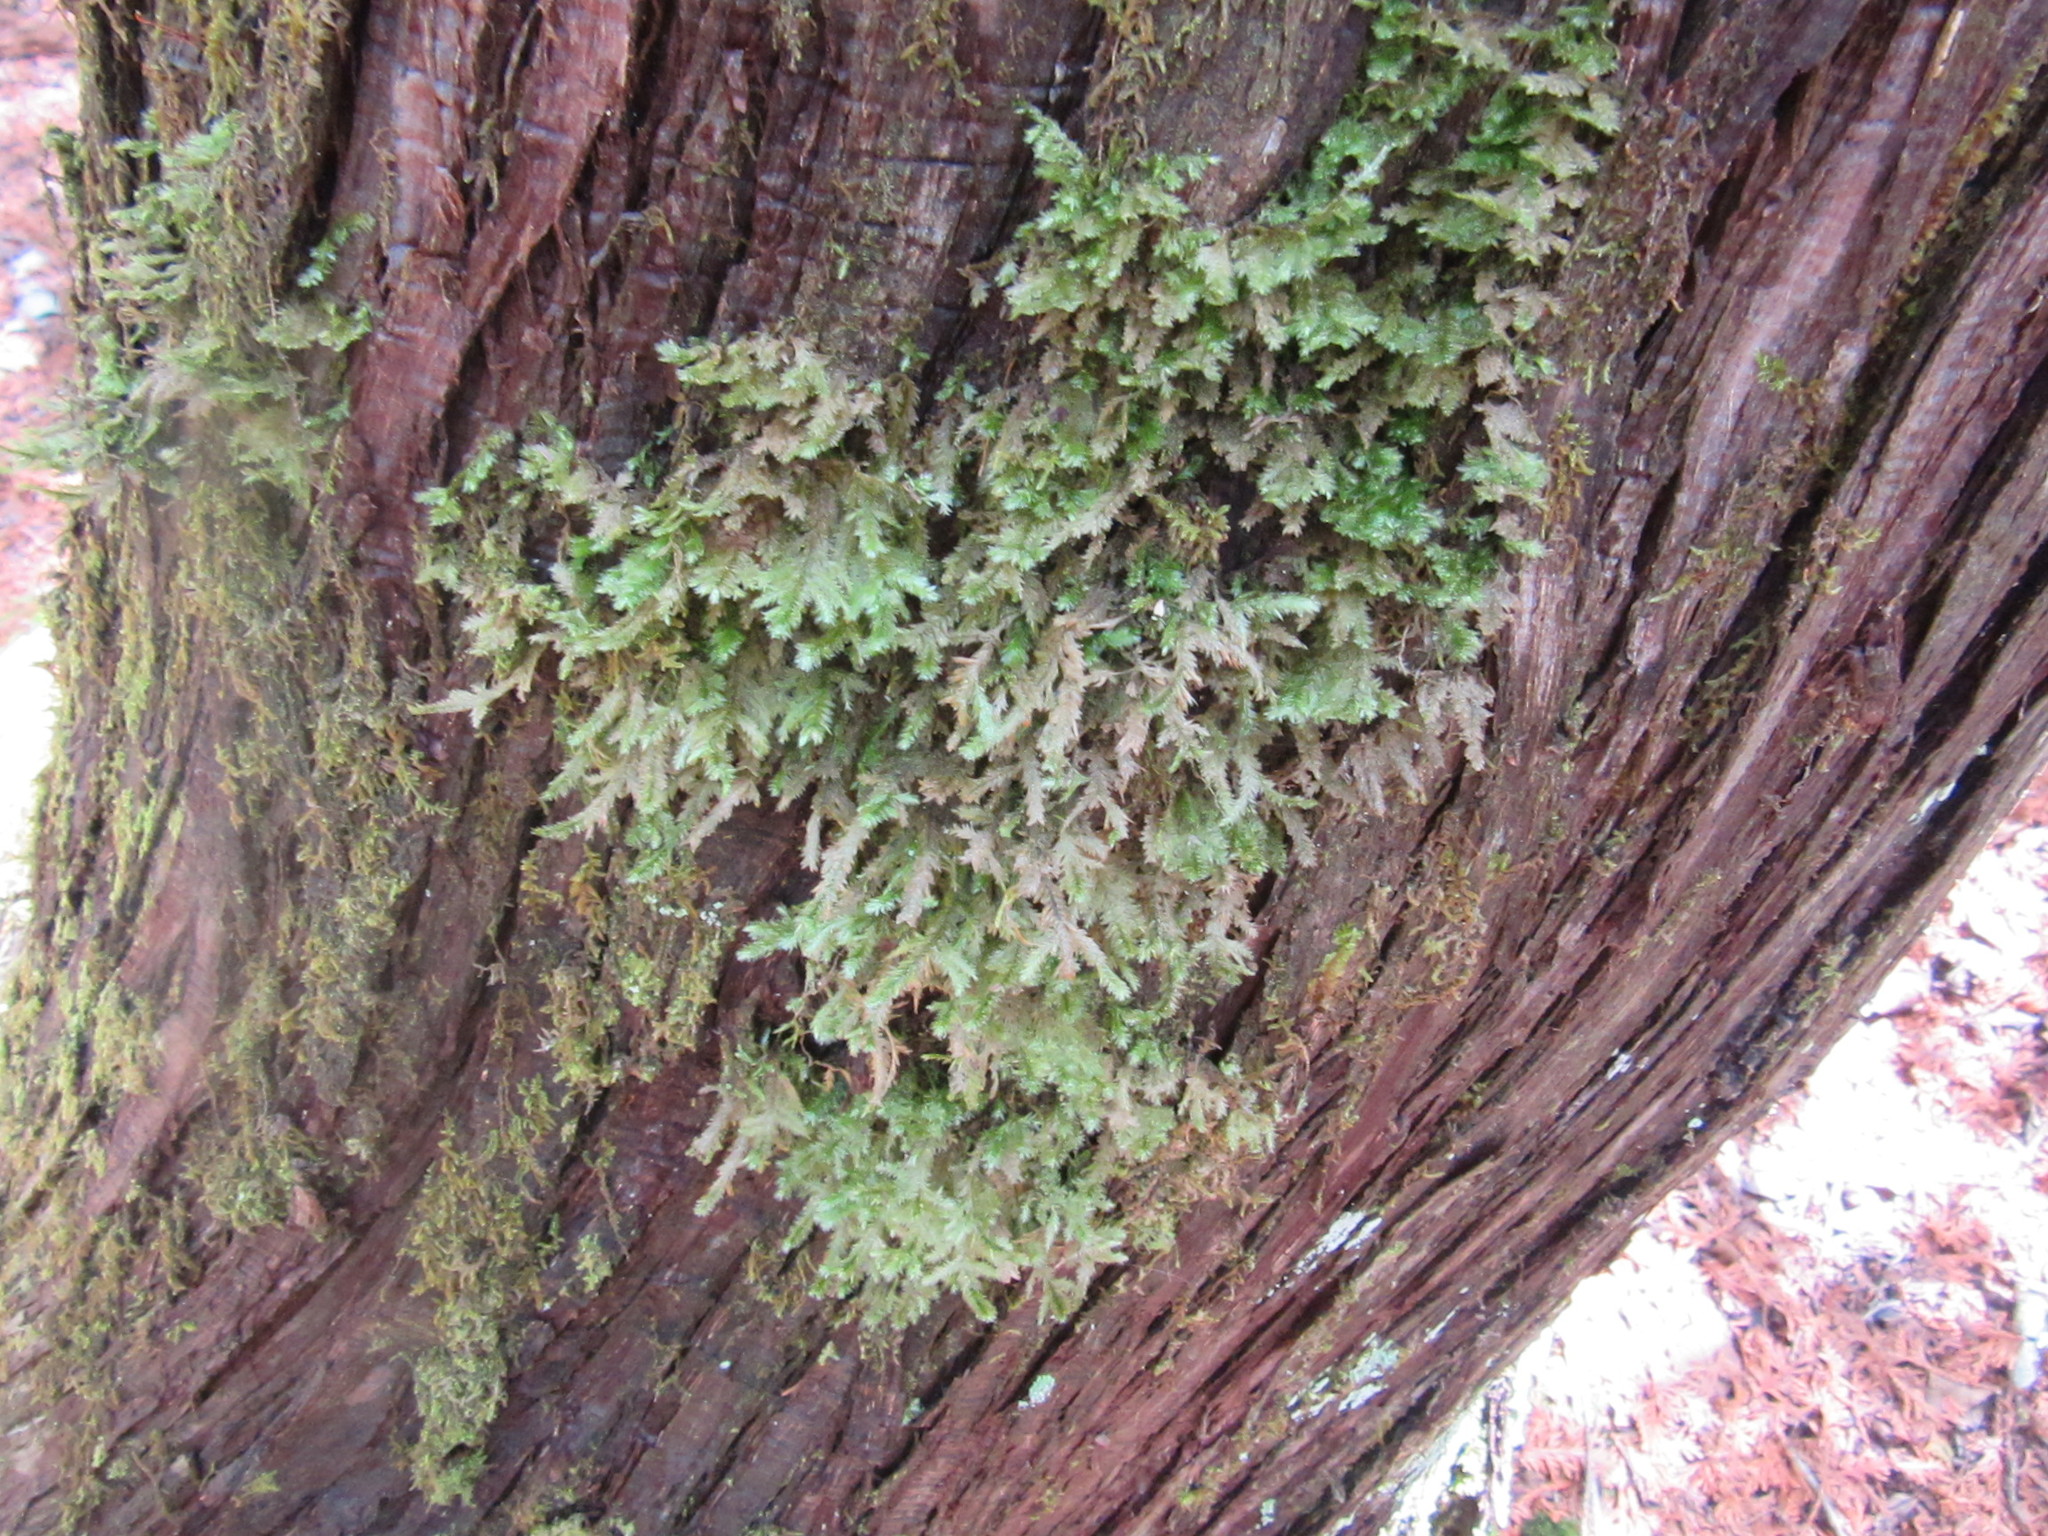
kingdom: Plantae
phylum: Bryophyta
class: Bryopsida
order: Hypnales
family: Neckeraceae
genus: Neckera
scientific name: Neckera pennata
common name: Feathery neckera
